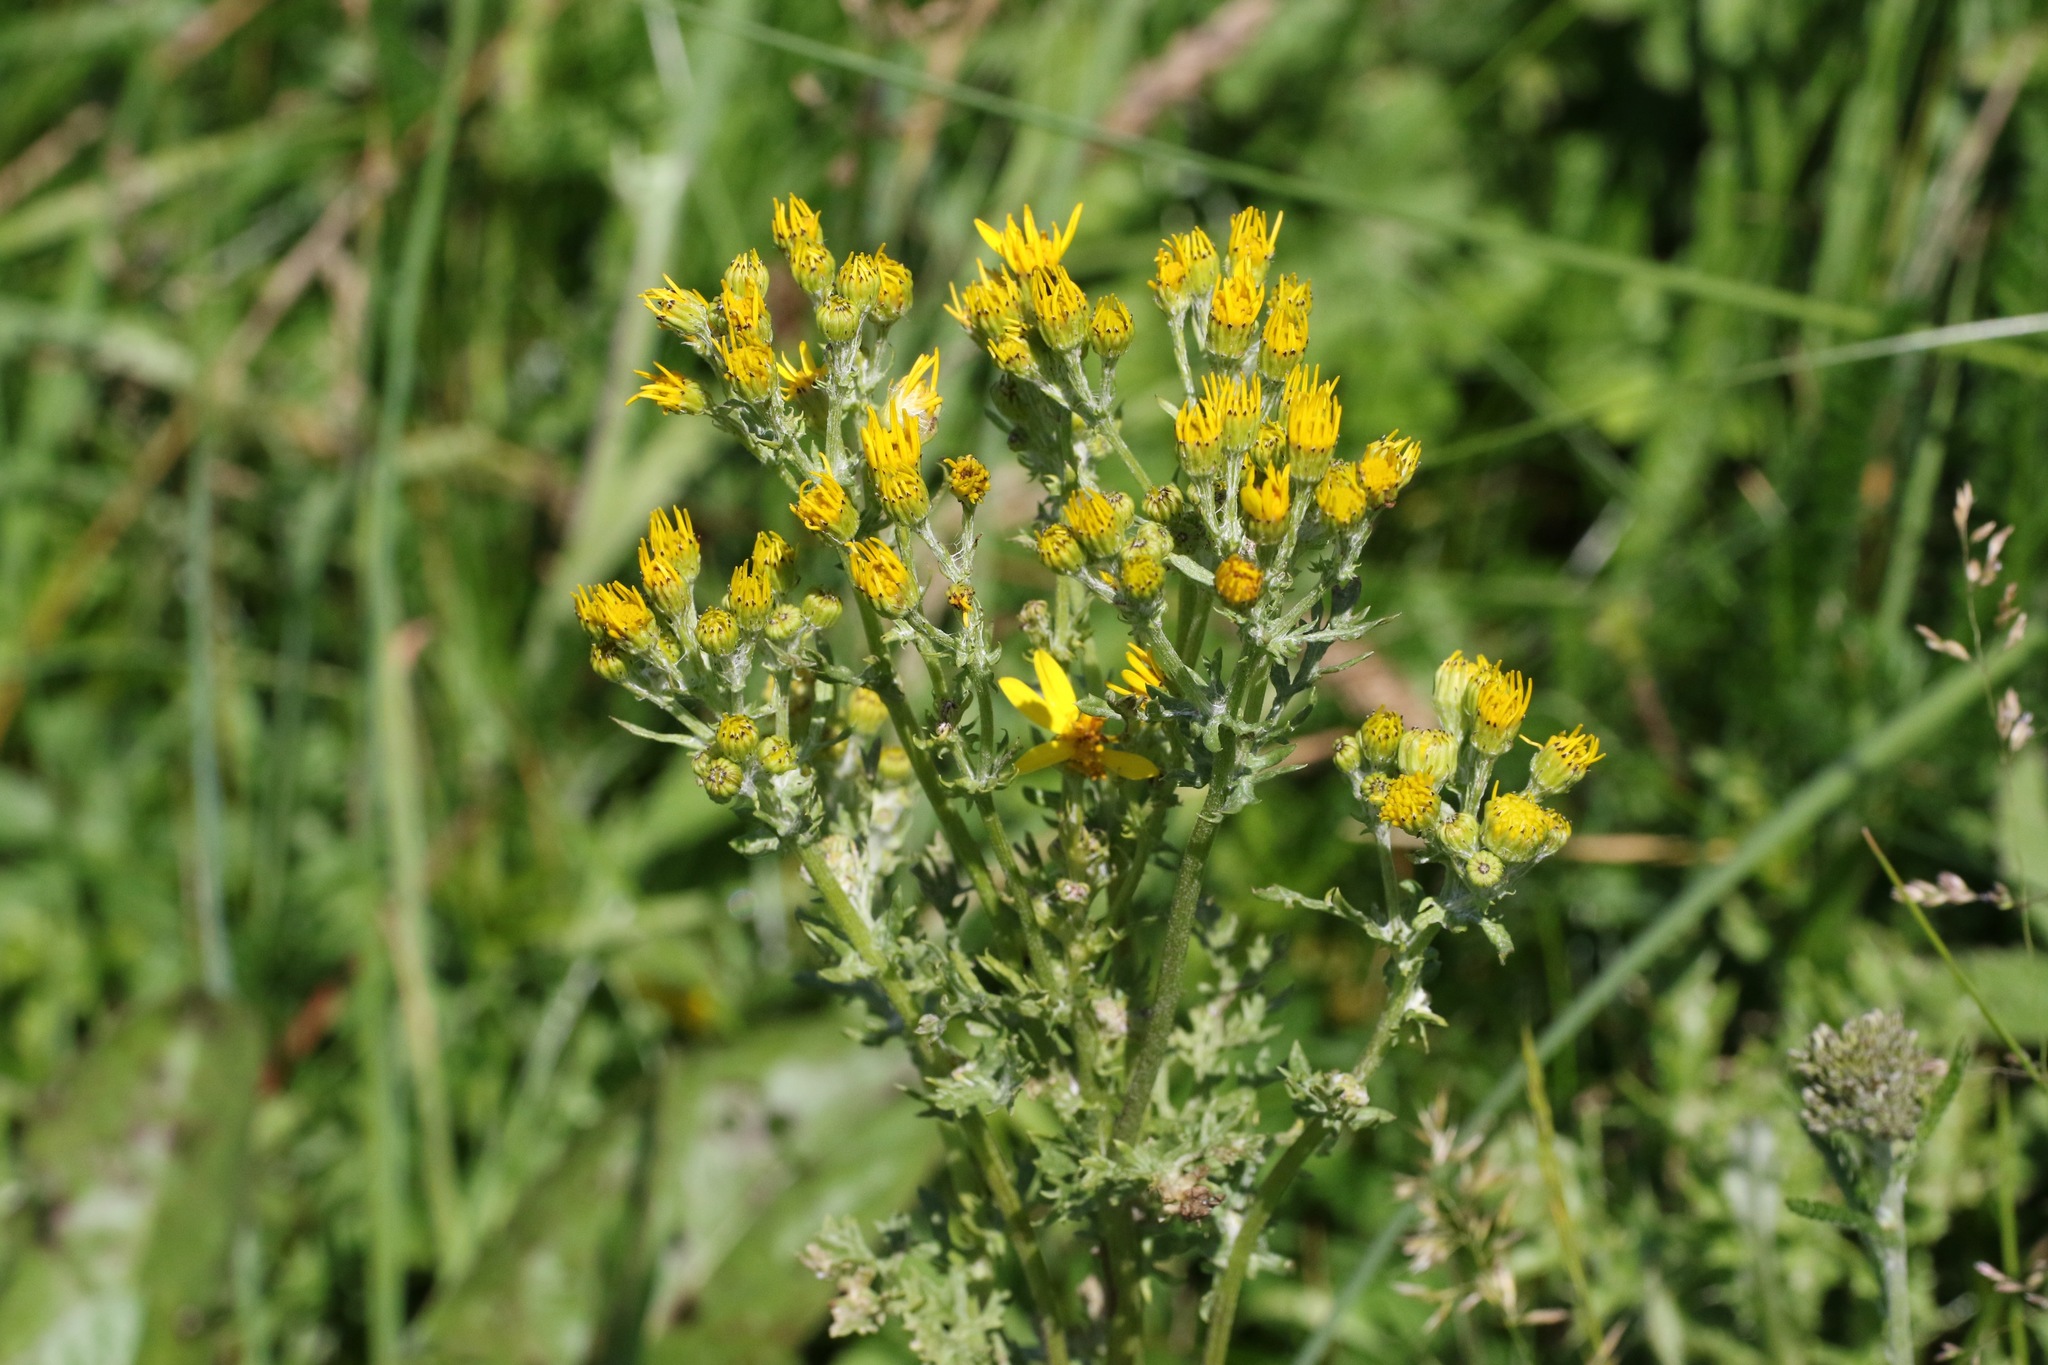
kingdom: Plantae
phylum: Tracheophyta
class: Magnoliopsida
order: Asterales
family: Asteraceae
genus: Jacobaea
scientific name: Jacobaea vulgaris
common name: Stinking willie
